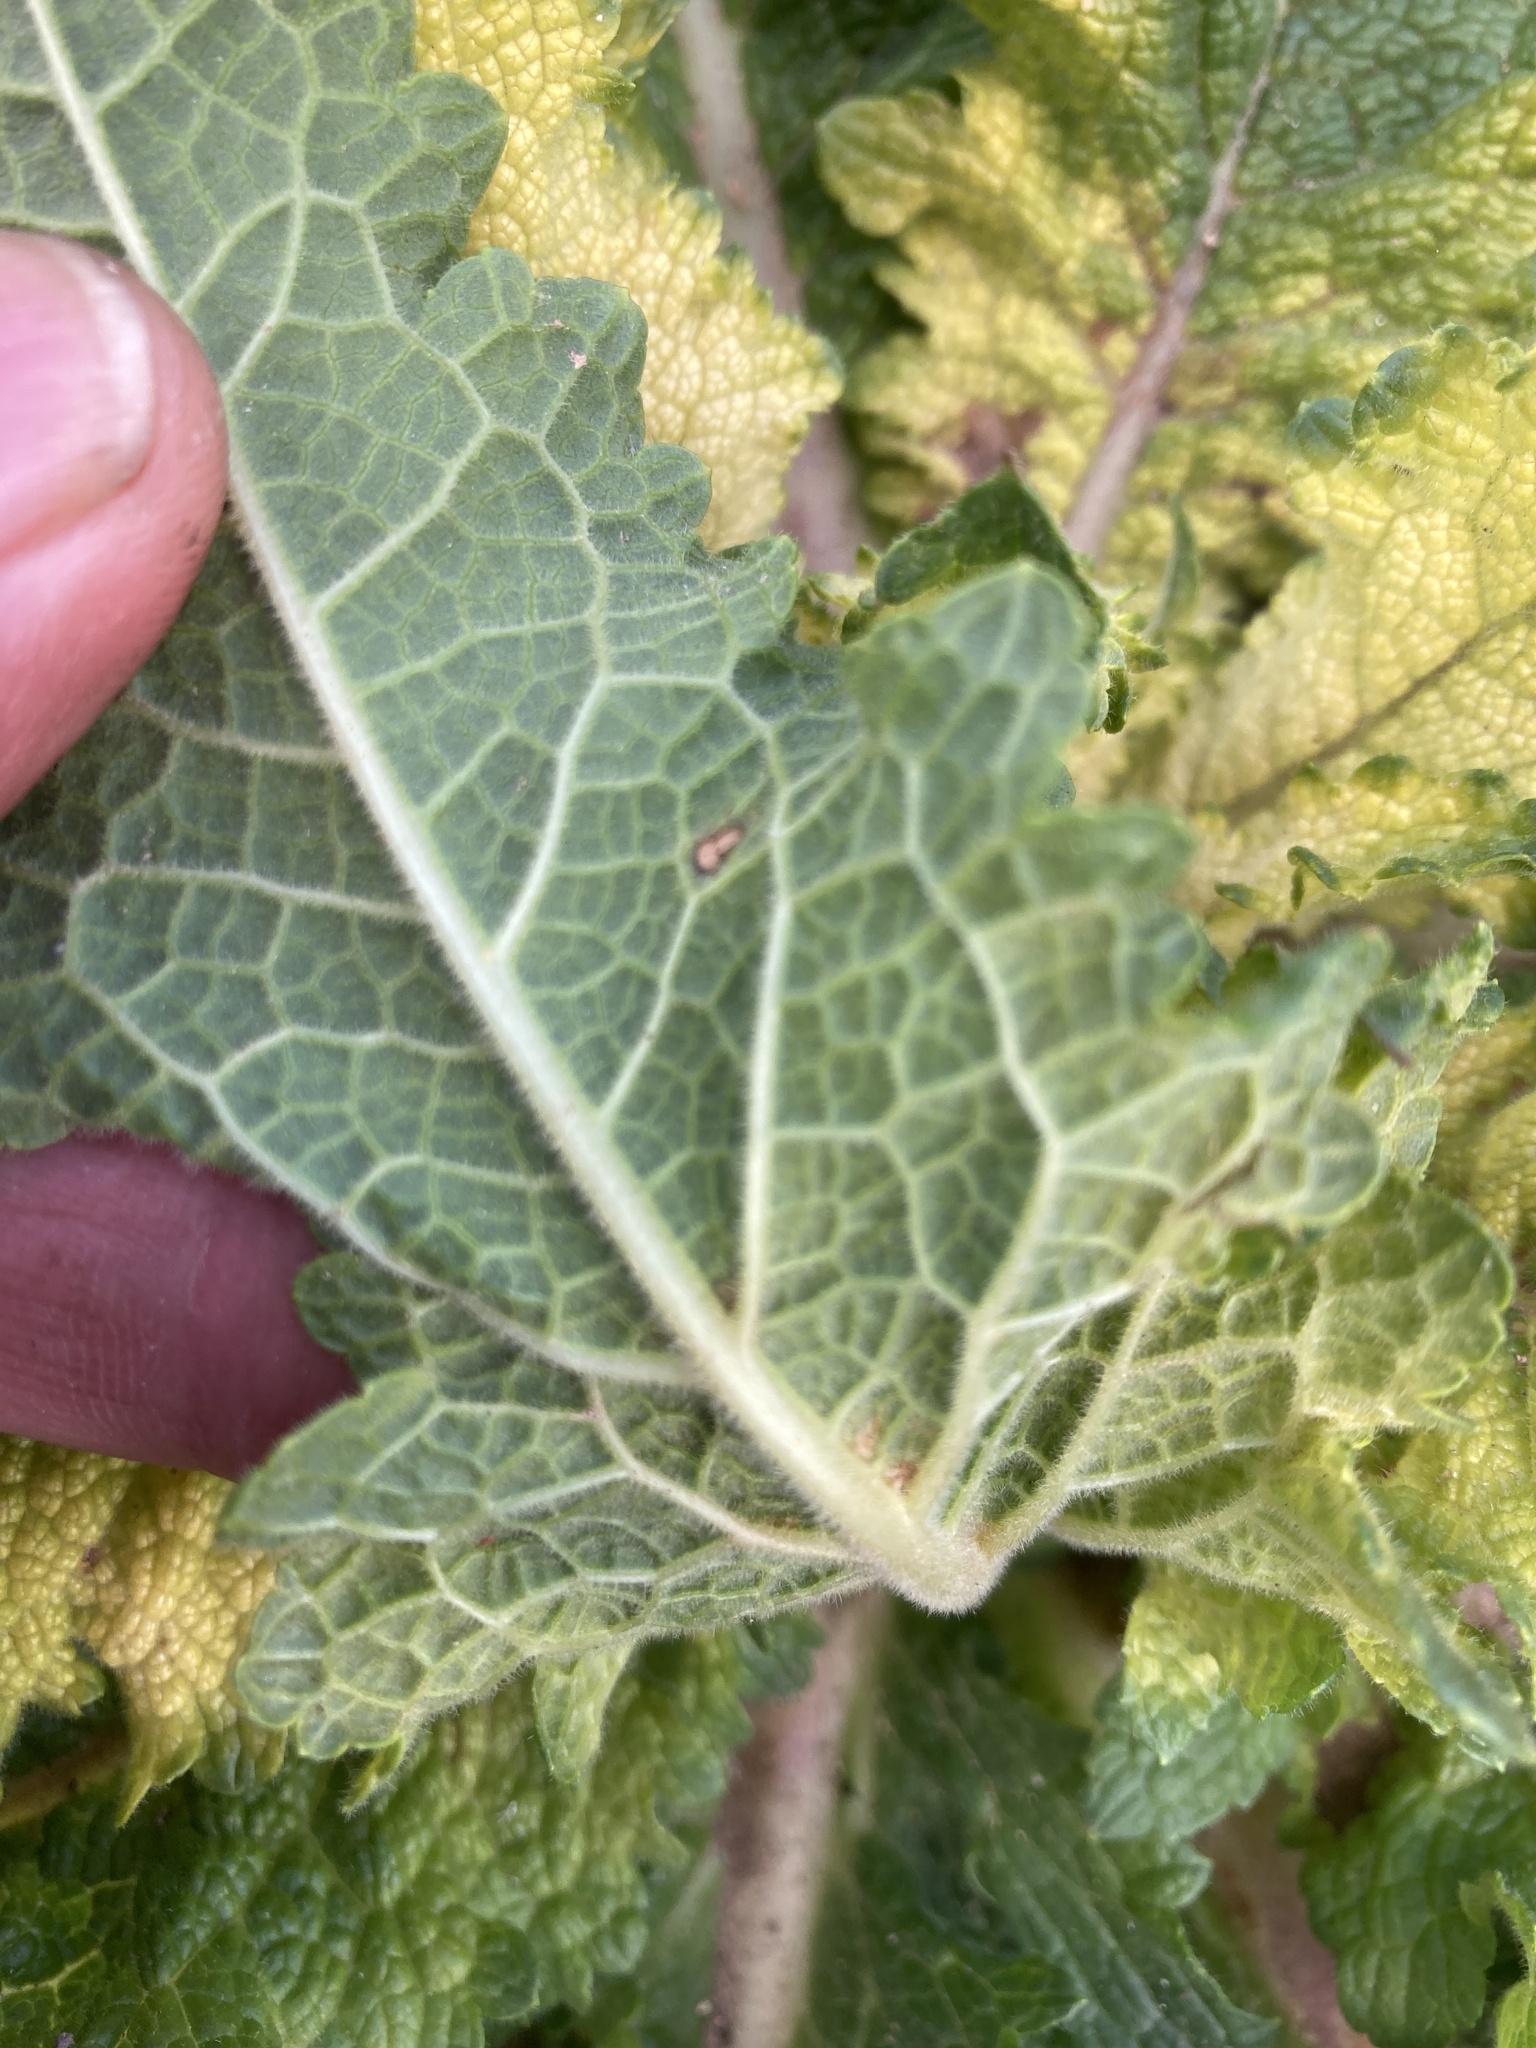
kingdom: Plantae
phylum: Tracheophyta
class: Magnoliopsida
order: Lamiales
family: Scrophulariaceae
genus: Verbascum
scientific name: Verbascum virgatum
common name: Twiggy mullein
